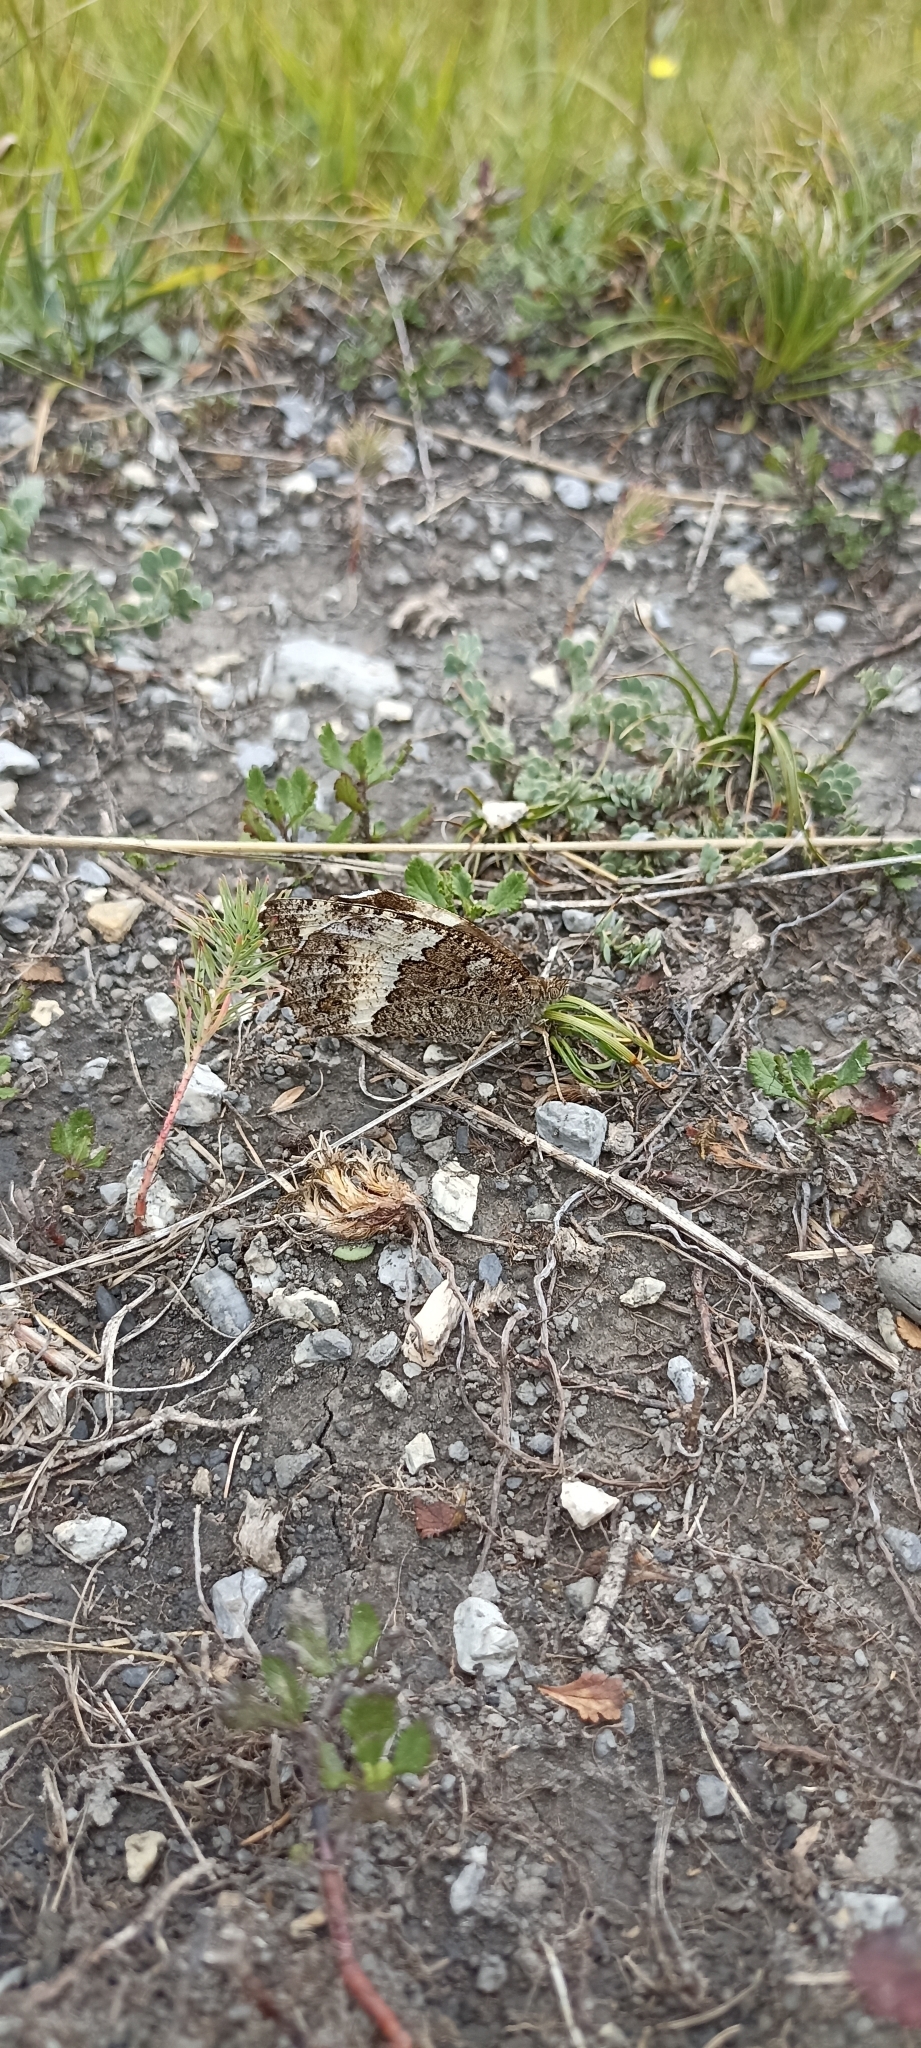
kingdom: Animalia
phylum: Arthropoda
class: Insecta
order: Lepidoptera
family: Lycaenidae
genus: Loweia
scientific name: Loweia tityrus
